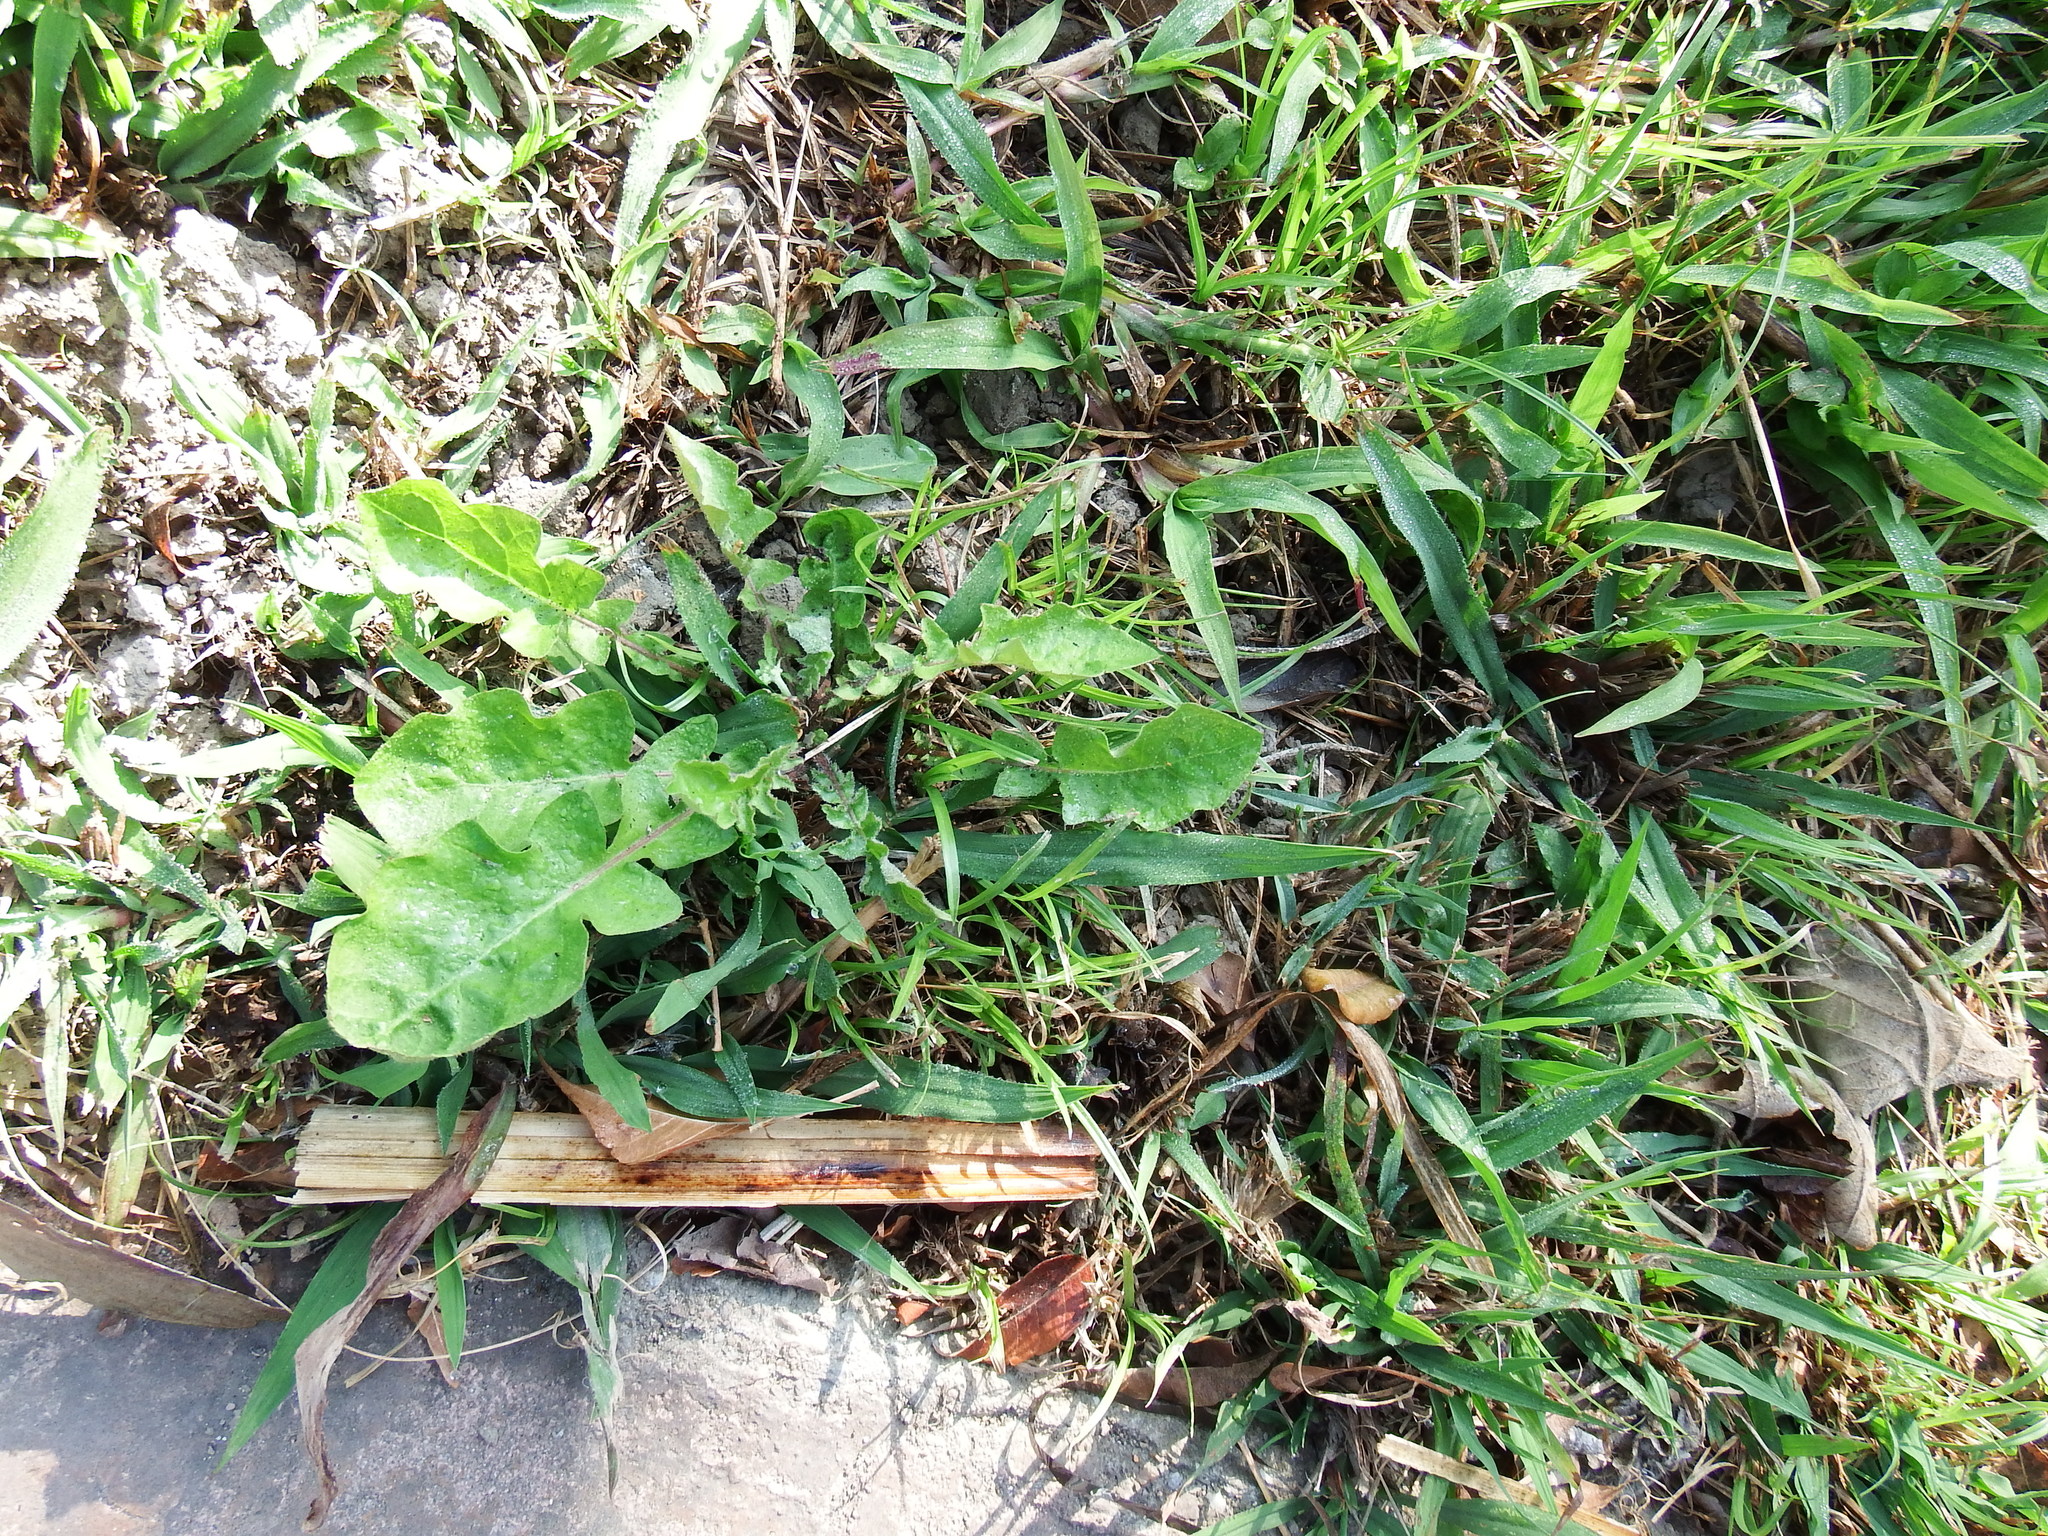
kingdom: Plantae
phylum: Tracheophyta
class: Magnoliopsida
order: Asterales
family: Asteraceae
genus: Youngia
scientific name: Youngia japonica
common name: Oriental false hawksbeard
